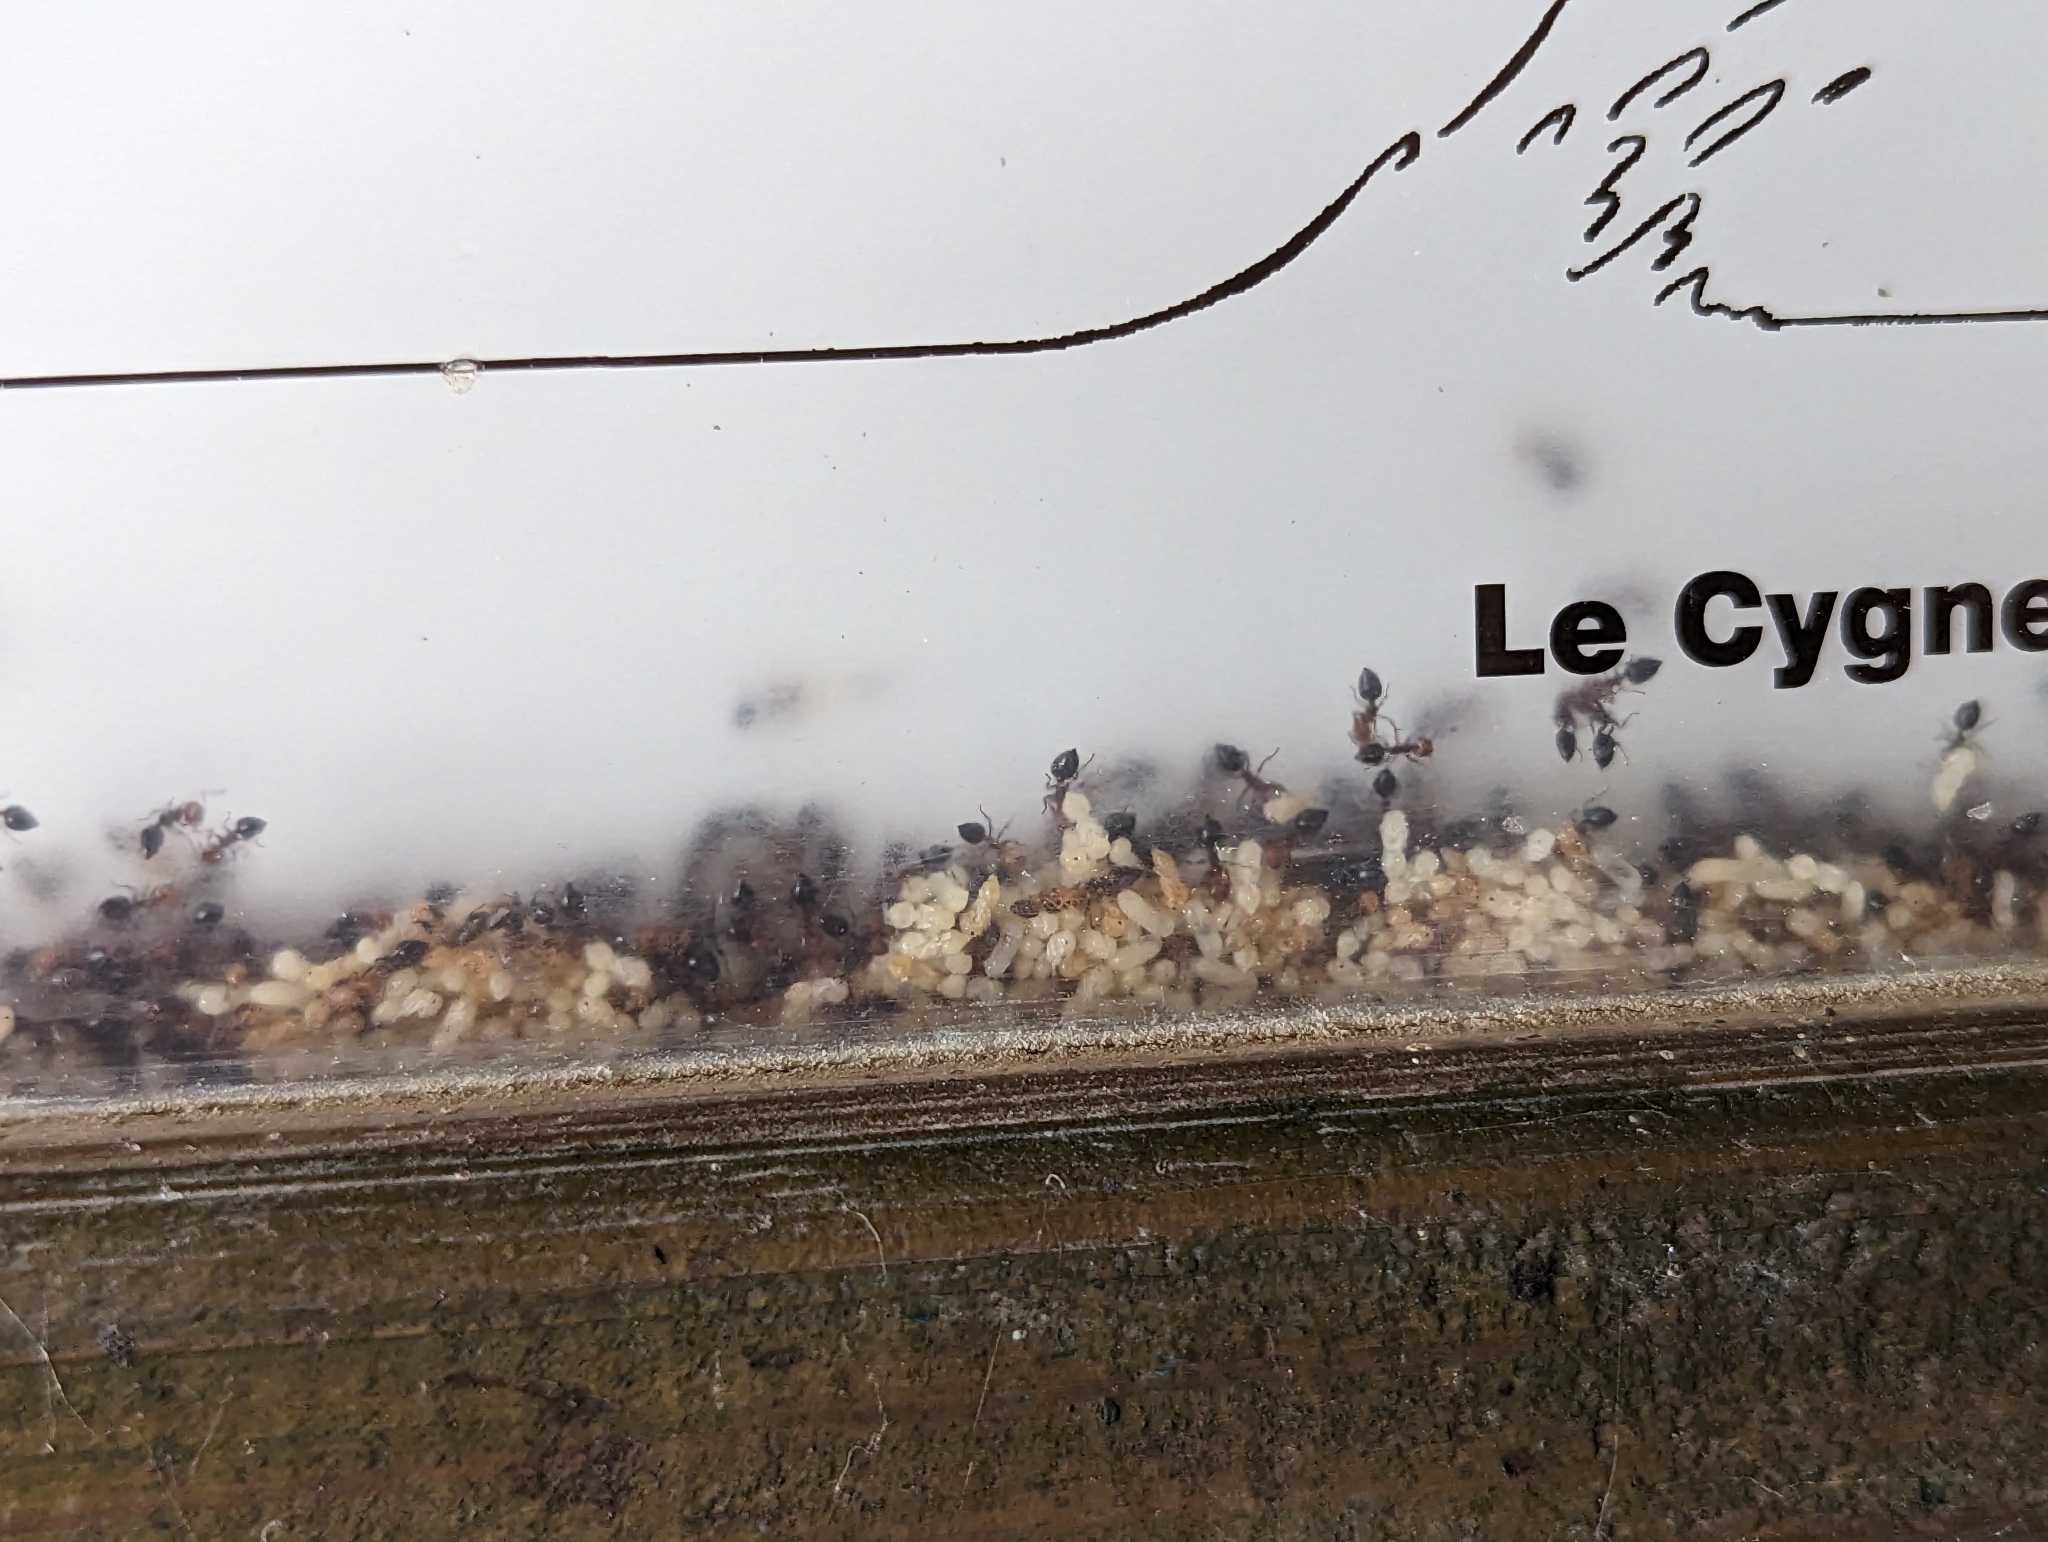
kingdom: Animalia
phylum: Arthropoda
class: Insecta
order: Hymenoptera
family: Formicidae
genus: Crematogaster
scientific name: Crematogaster scutellaris
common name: Fourmi du liège
